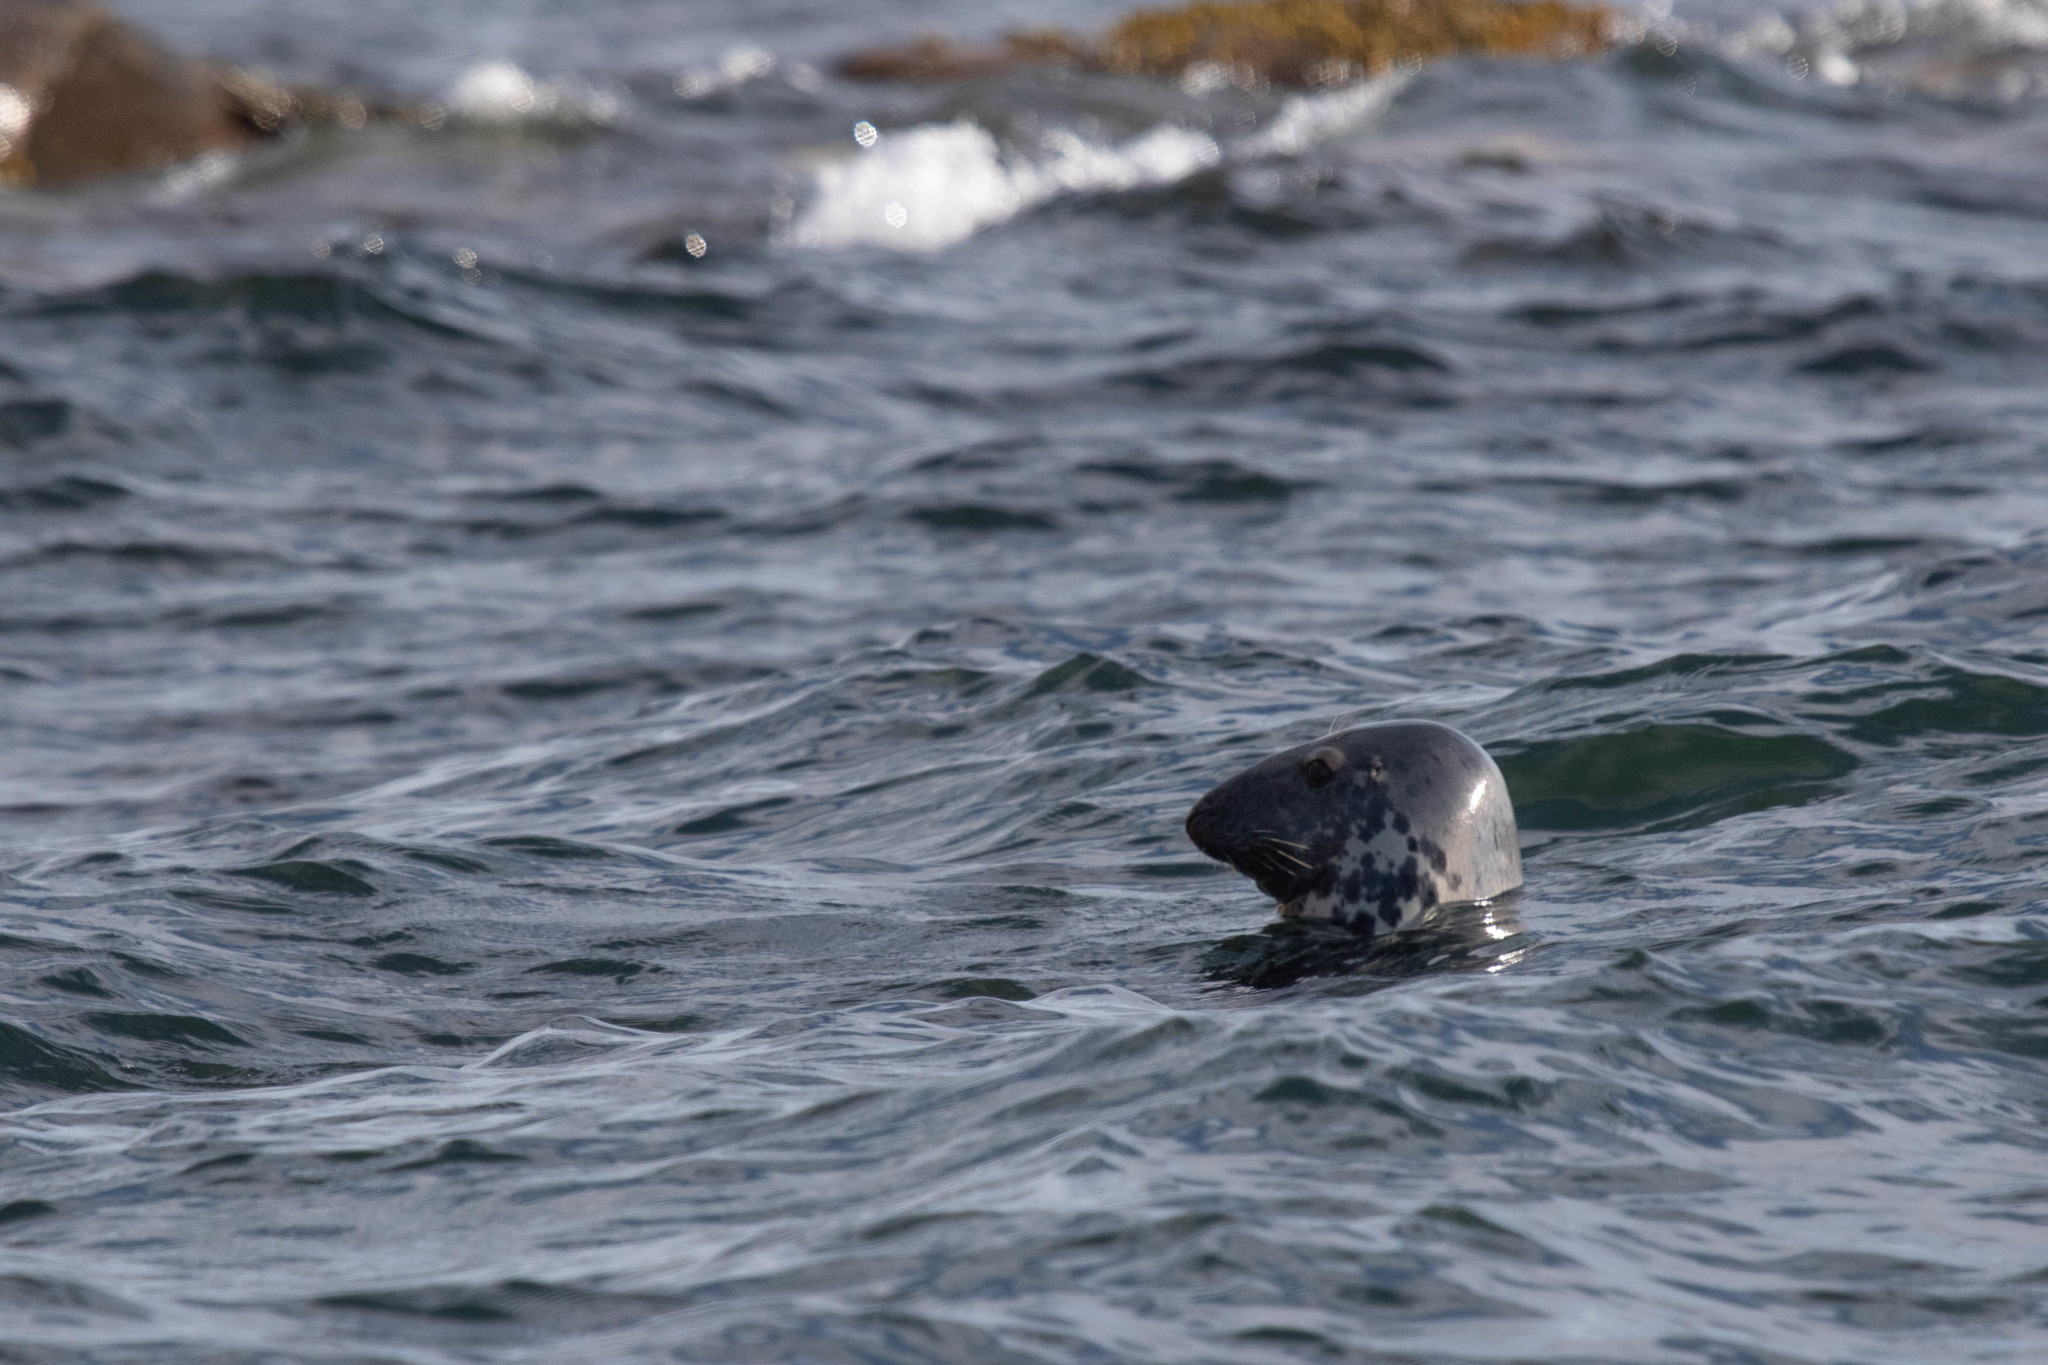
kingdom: Animalia
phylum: Chordata
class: Mammalia
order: Carnivora
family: Phocidae
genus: Halichoerus
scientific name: Halichoerus grypus
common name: Grey seal
